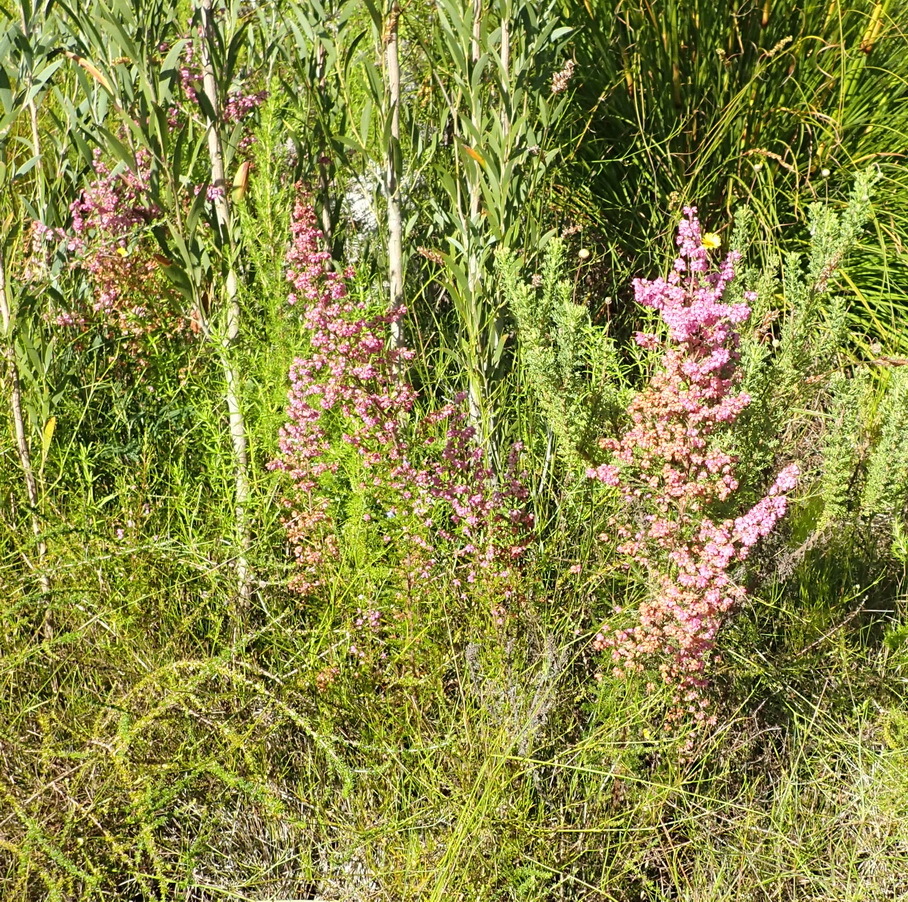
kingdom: Plantae
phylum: Tracheophyta
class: Magnoliopsida
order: Ericales
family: Ericaceae
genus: Erica
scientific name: Erica gracilis
